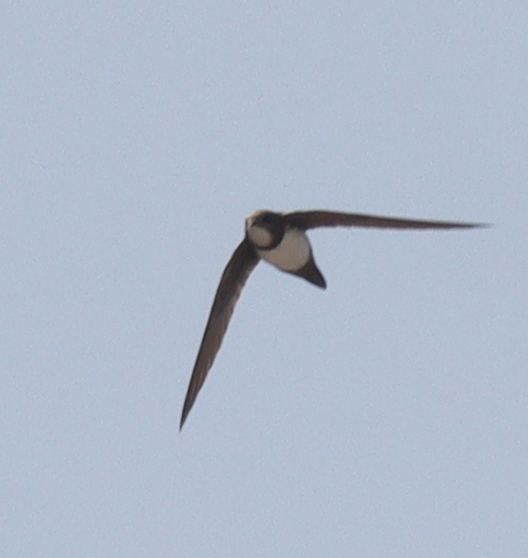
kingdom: Animalia
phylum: Chordata
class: Aves
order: Apodiformes
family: Apodidae
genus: Tachymarptis
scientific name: Tachymarptis melba
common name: Alpine swift
